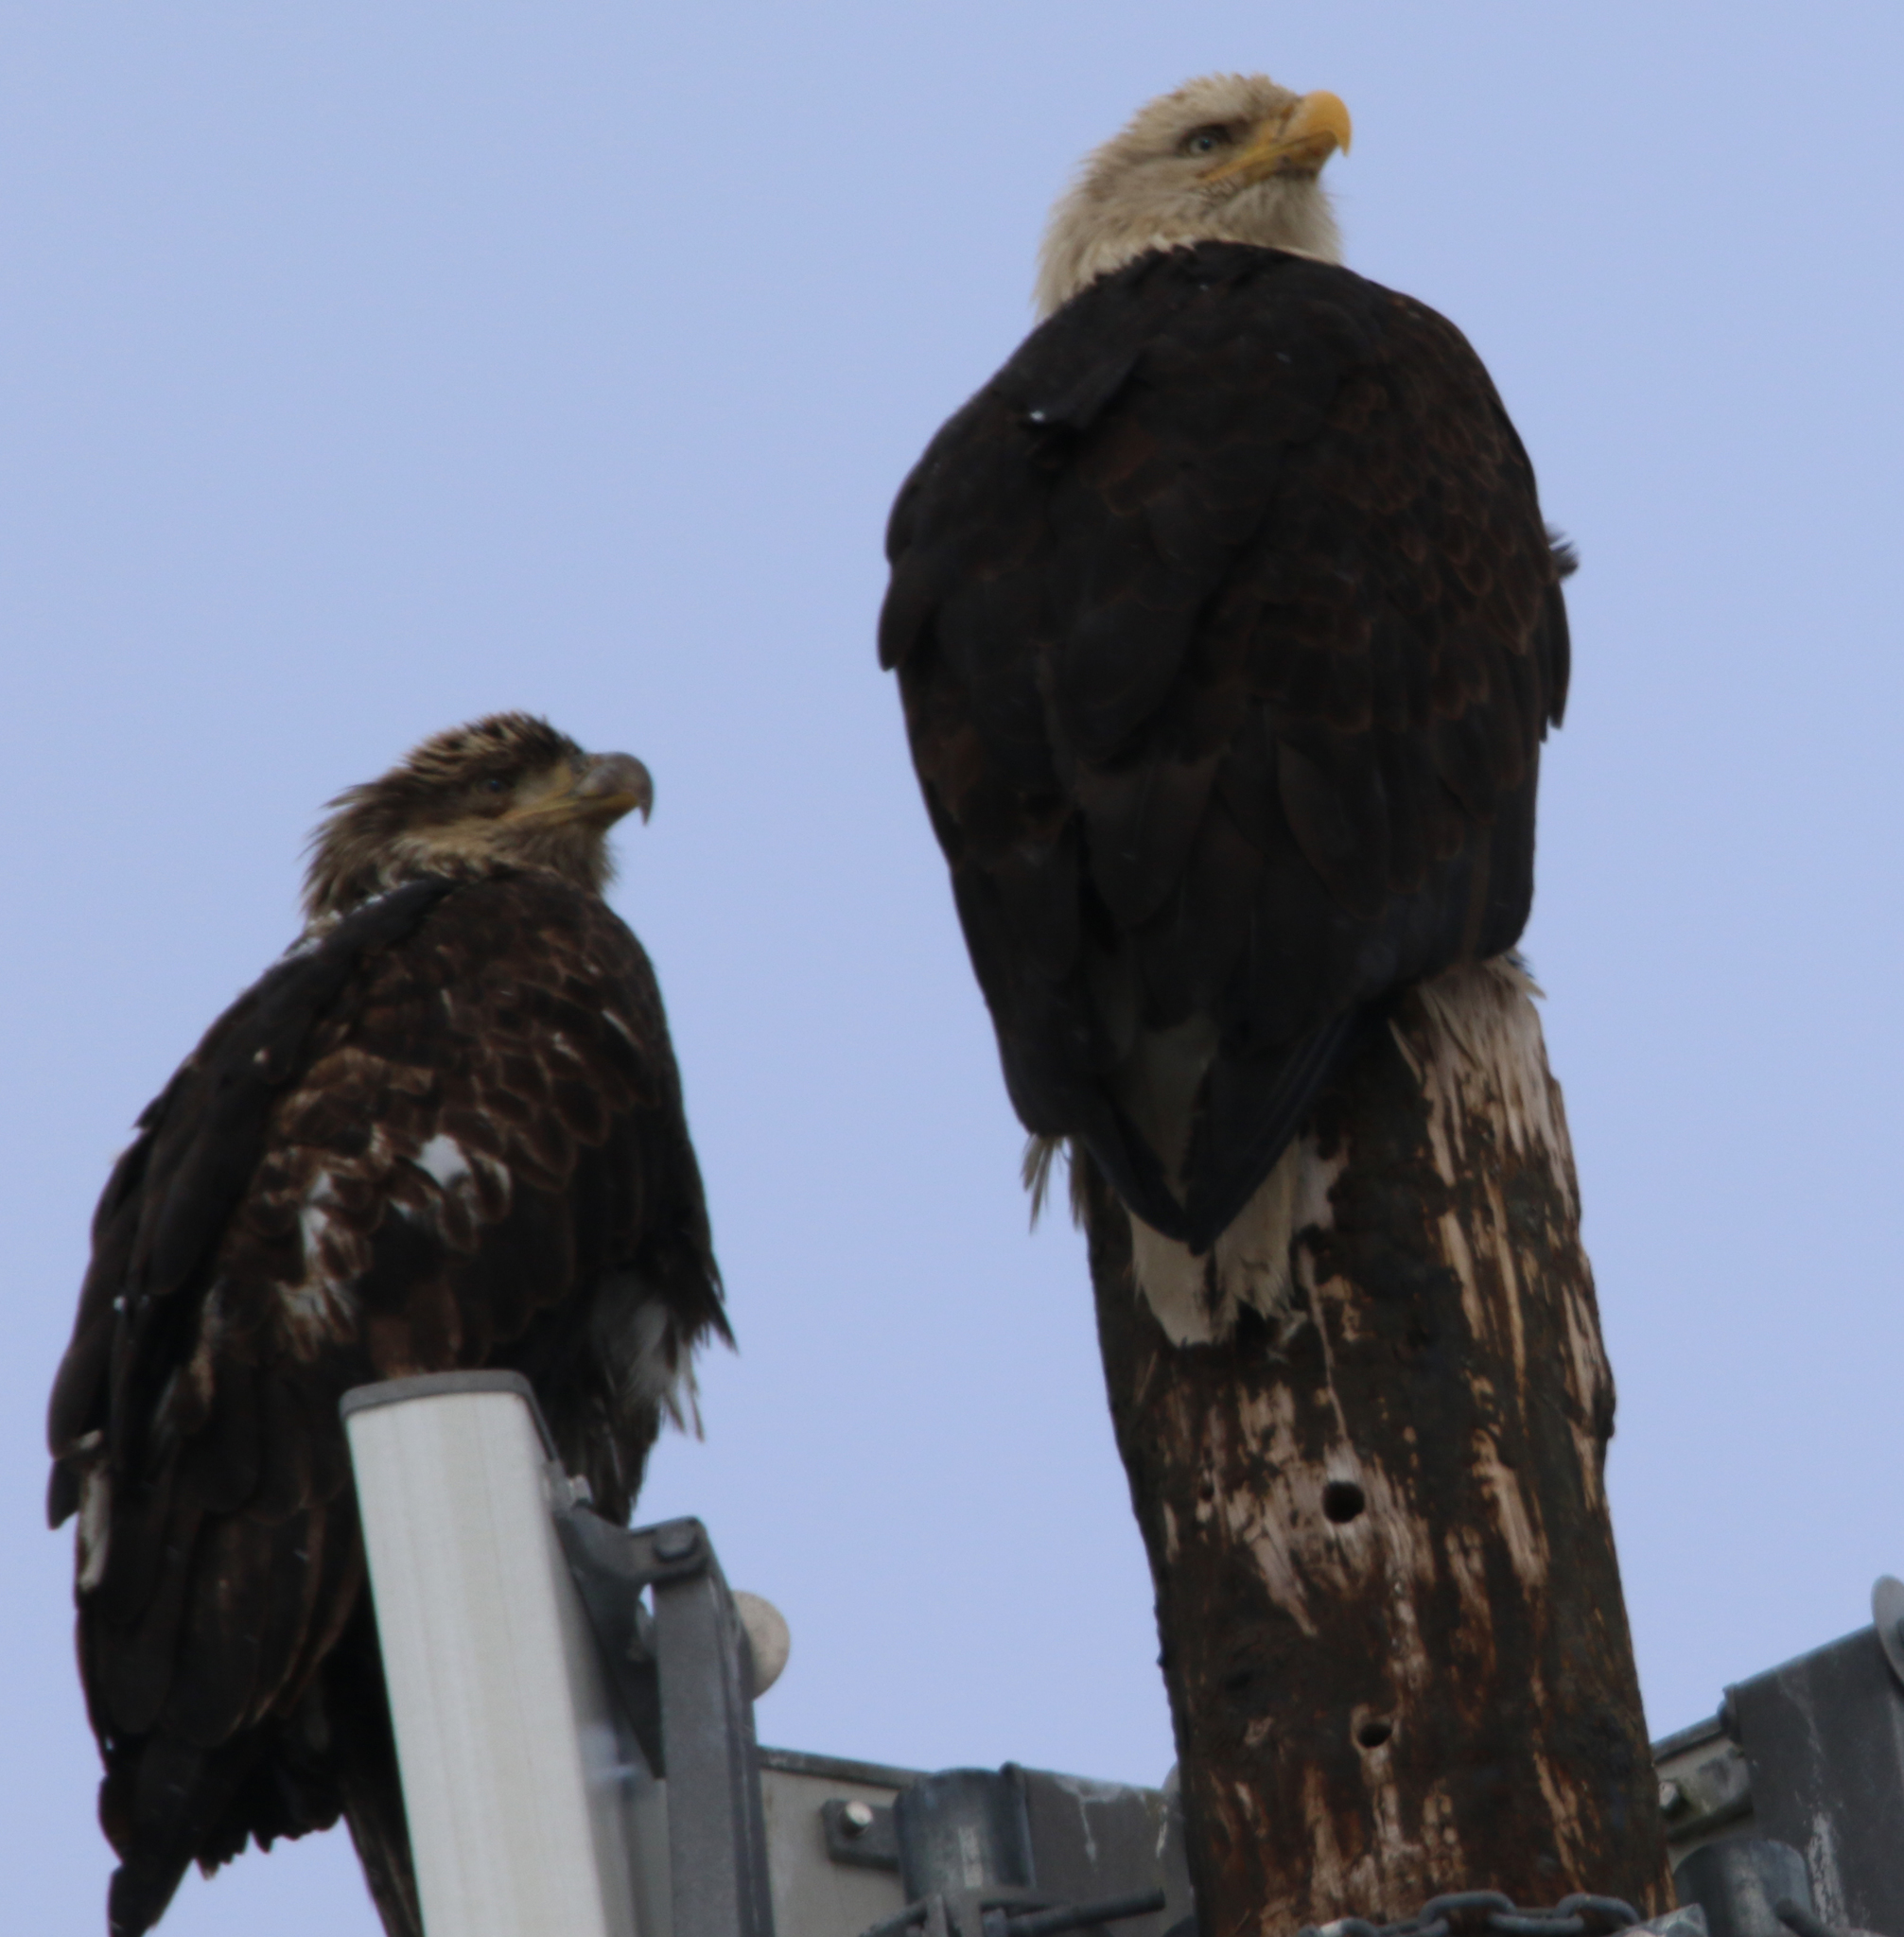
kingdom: Animalia
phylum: Chordata
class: Aves
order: Accipitriformes
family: Accipitridae
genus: Haliaeetus
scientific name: Haliaeetus leucocephalus
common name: Bald eagle
